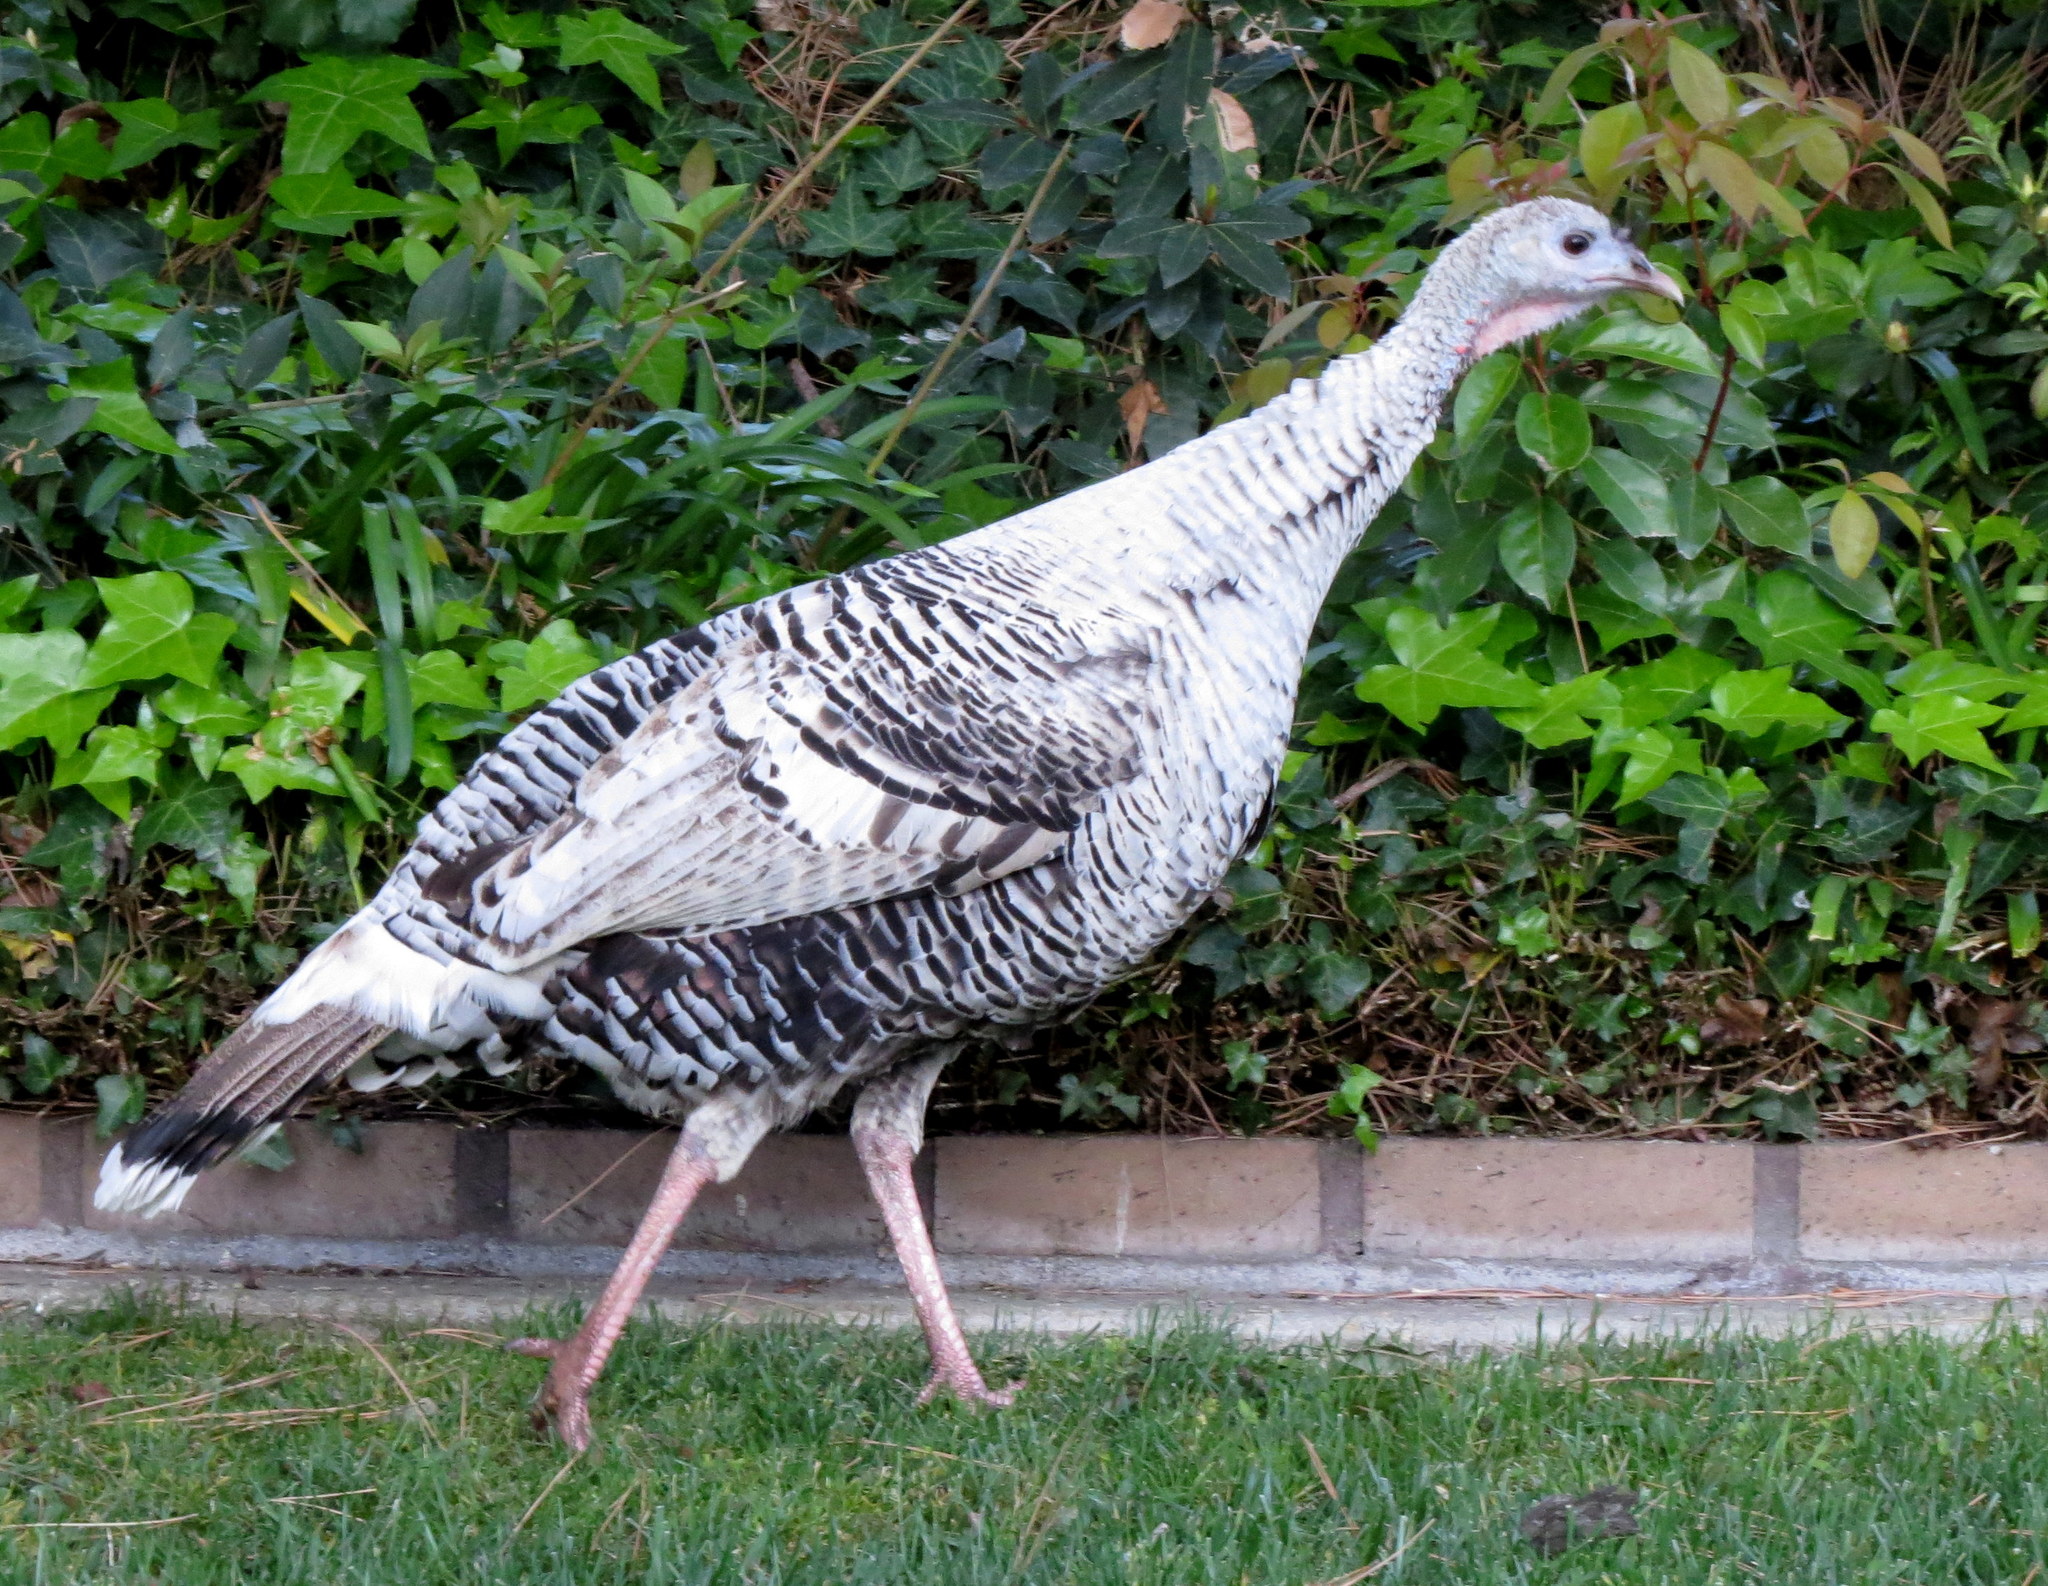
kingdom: Animalia
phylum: Chordata
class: Aves
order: Galliformes
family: Phasianidae
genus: Meleagris
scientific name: Meleagris gallopavo
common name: Wild turkey
